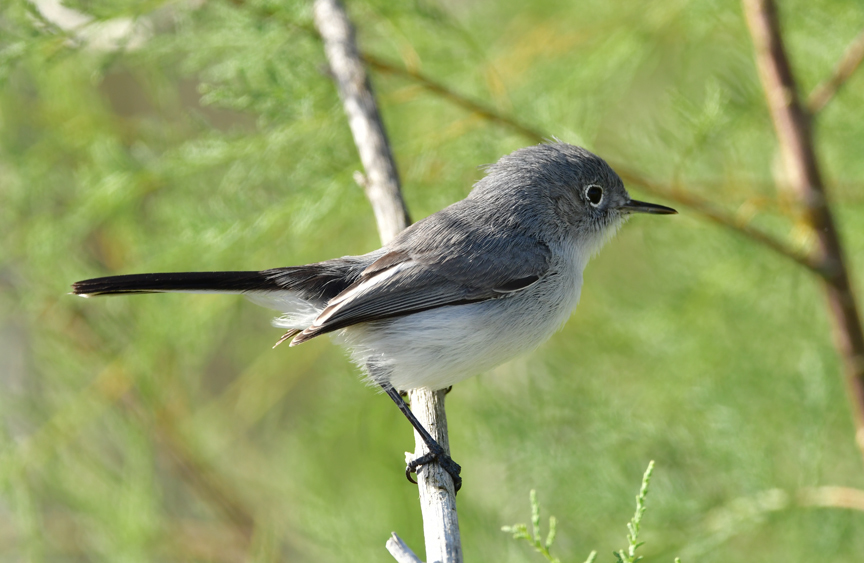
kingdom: Animalia
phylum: Chordata
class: Aves
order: Passeriformes
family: Polioptilidae
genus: Polioptila
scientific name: Polioptila caerulea
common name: Blue-gray gnatcatcher
